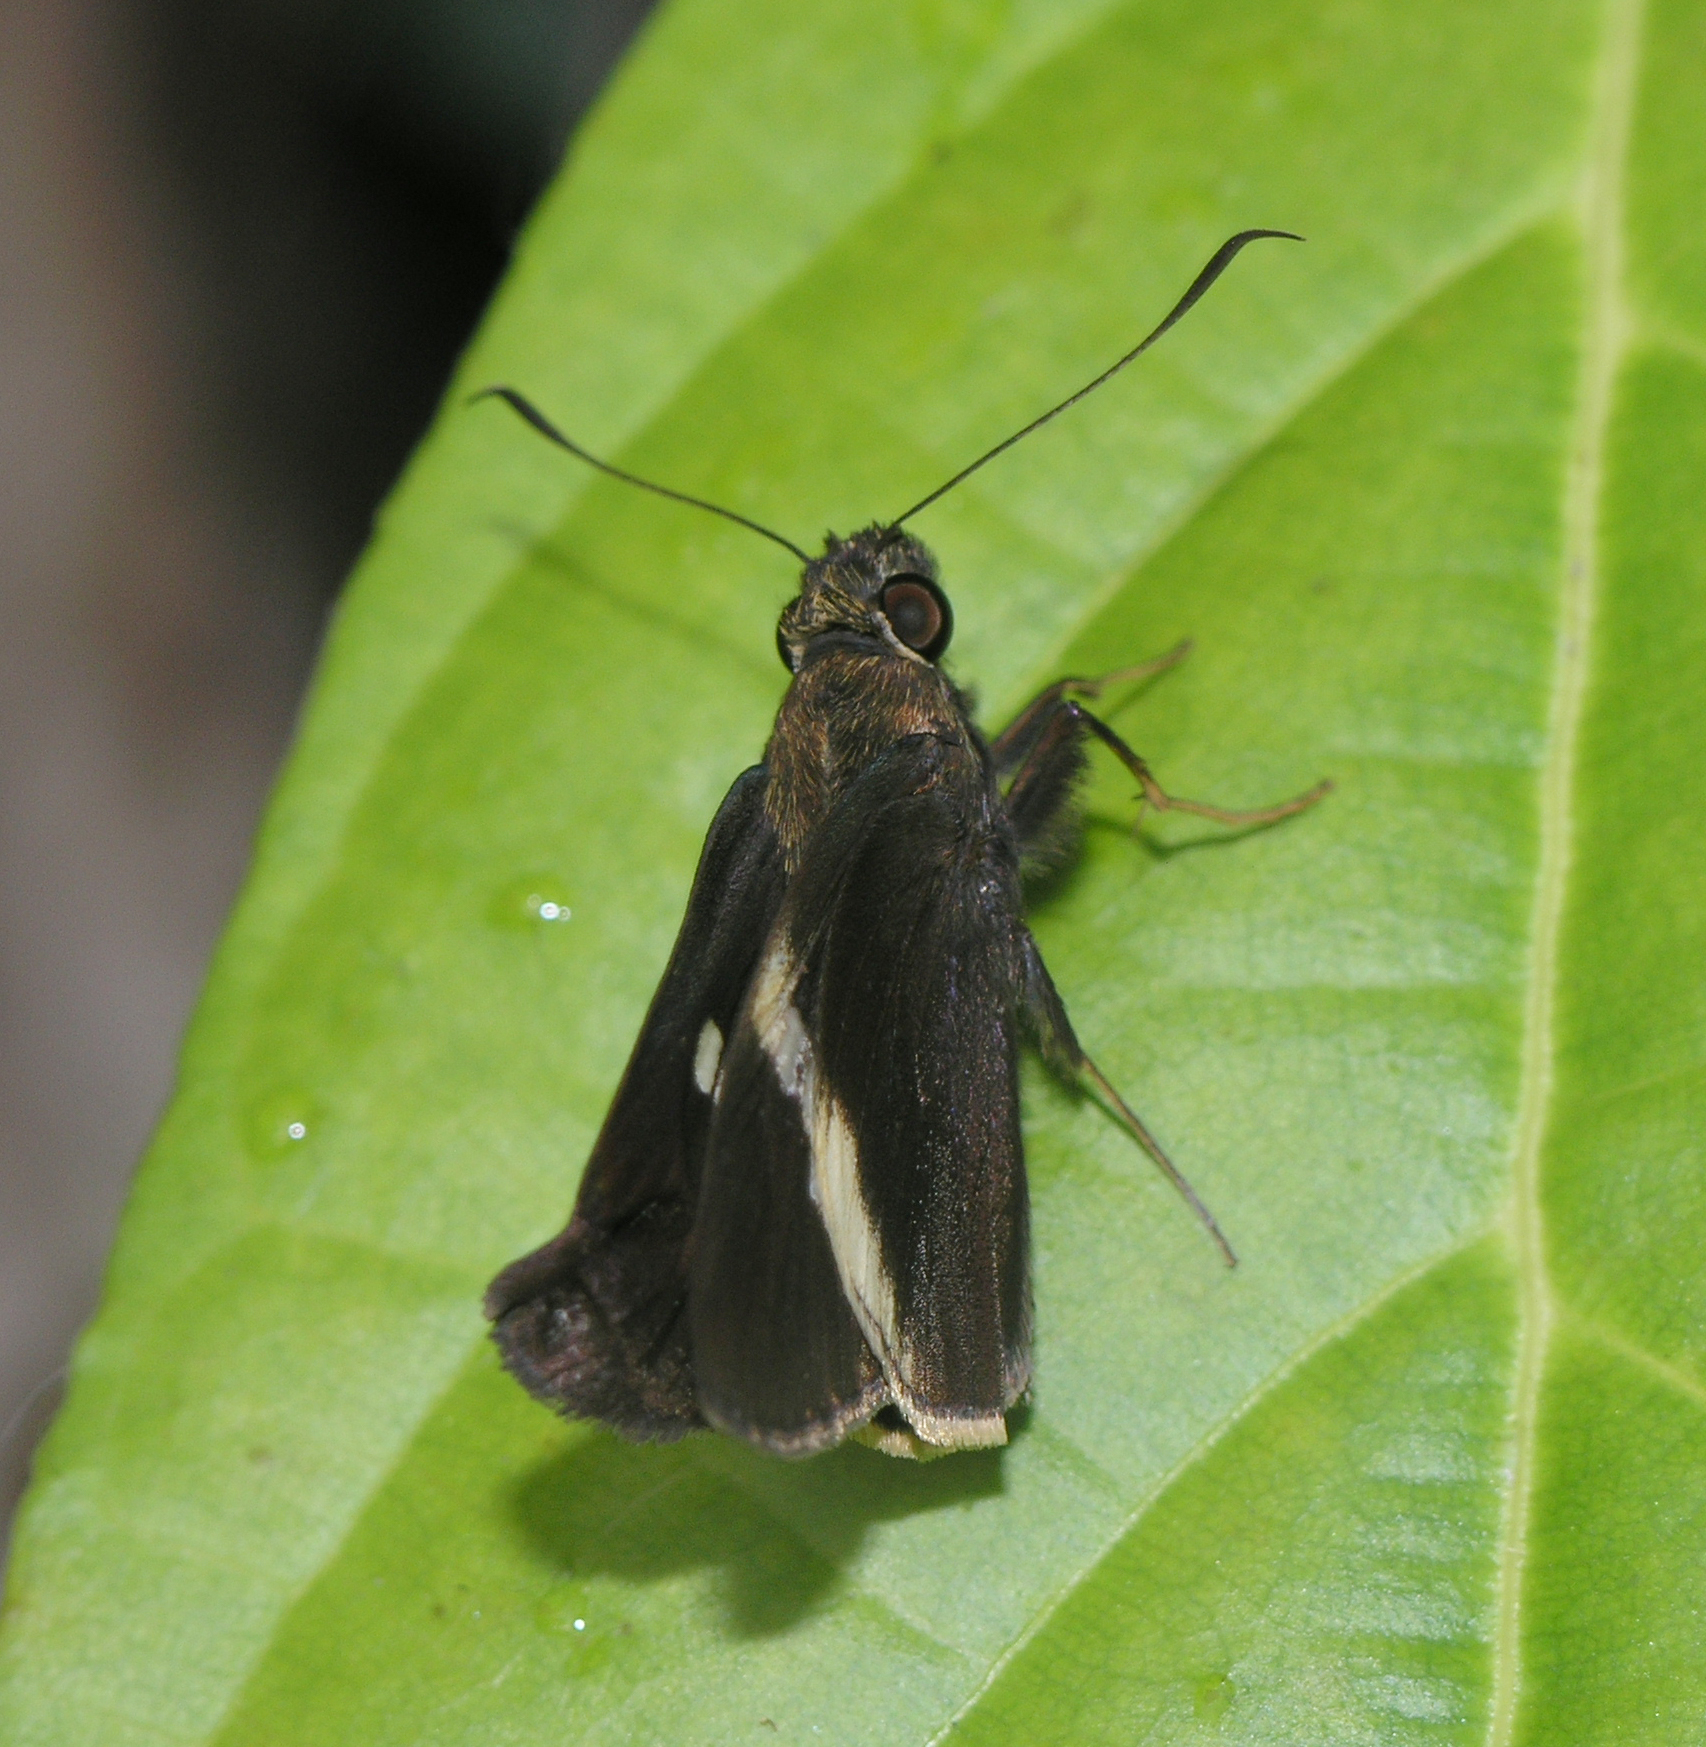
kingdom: Animalia
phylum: Arthropoda
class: Insecta
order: Lepidoptera
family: Hesperiidae
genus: Lotongus
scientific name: Lotongus calathus
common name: White-tipped palmer
